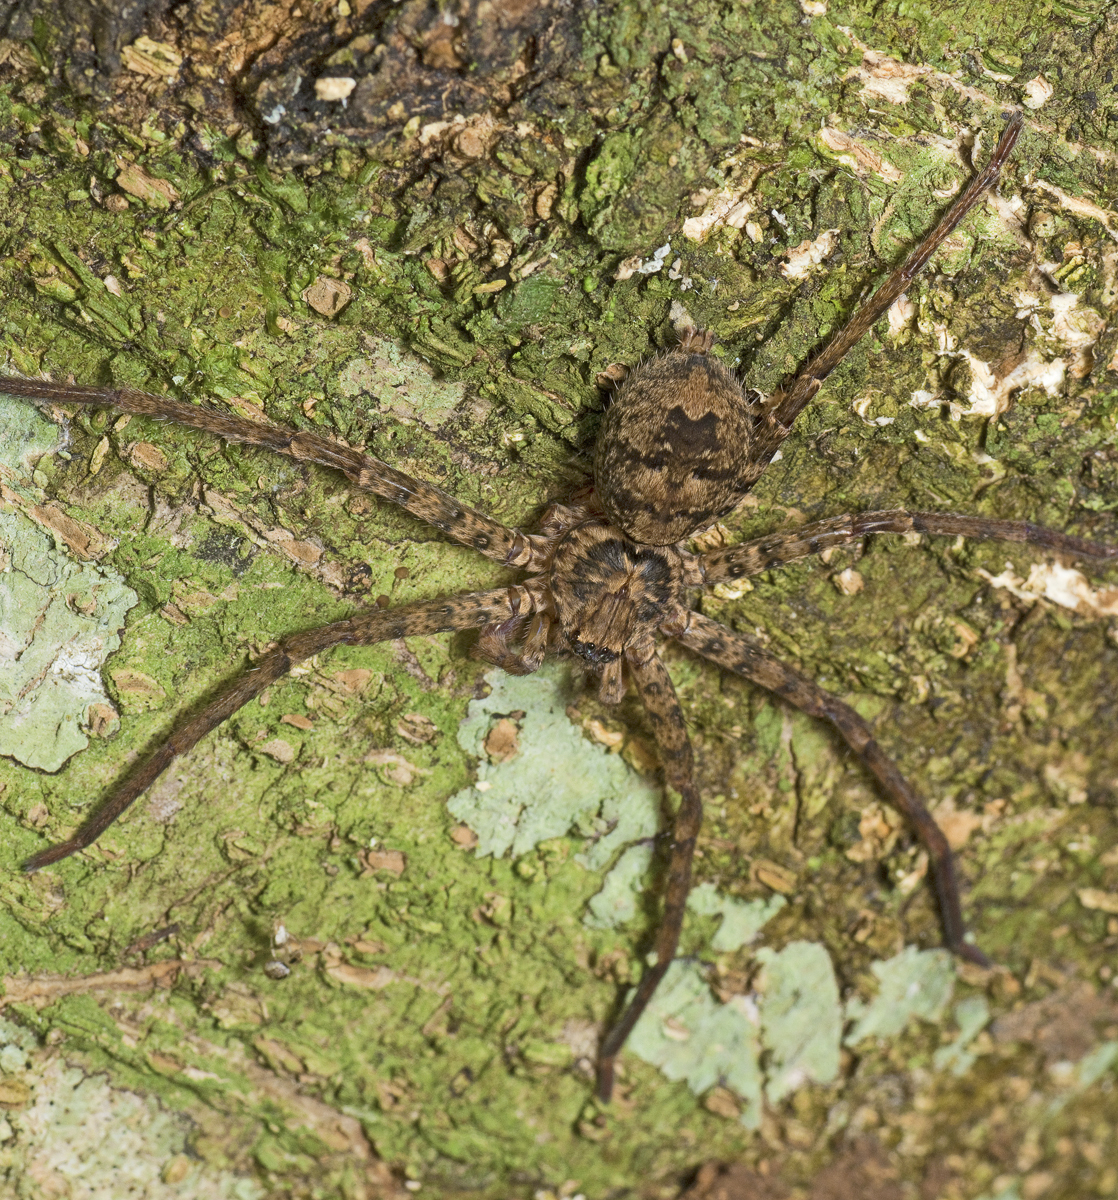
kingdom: Animalia
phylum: Arthropoda
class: Arachnida
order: Araneae
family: Sparassidae
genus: Heteropoda
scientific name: Heteropoda procera
